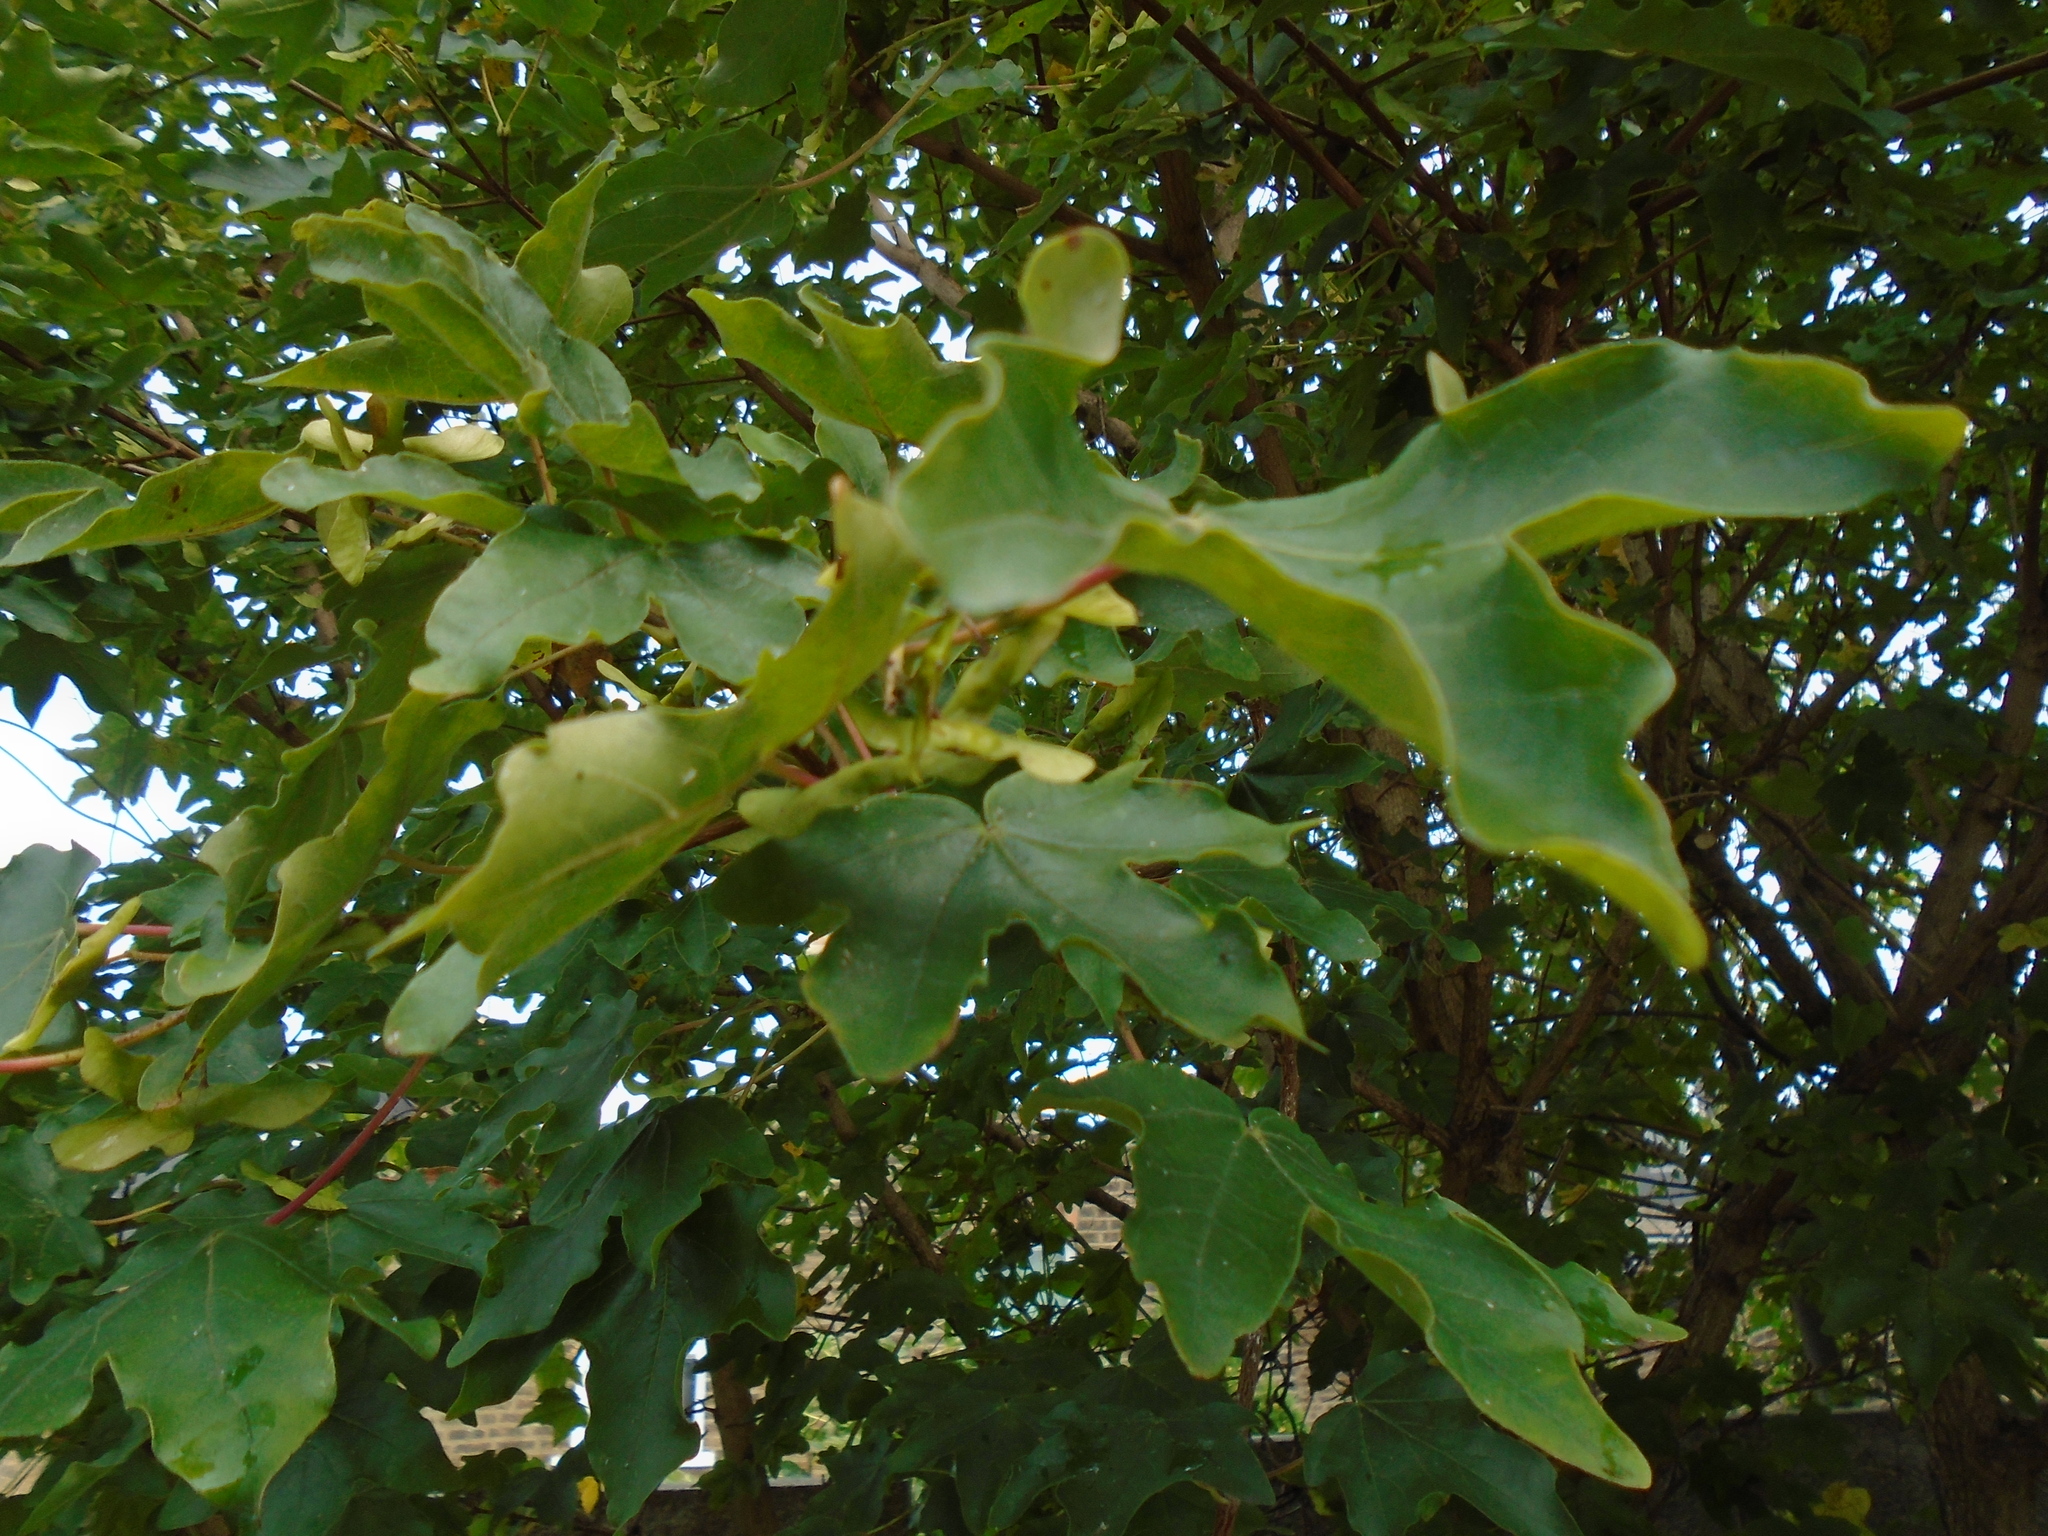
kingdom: Plantae
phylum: Tracheophyta
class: Magnoliopsida
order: Sapindales
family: Sapindaceae
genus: Acer
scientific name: Acer campestre
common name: Field maple
